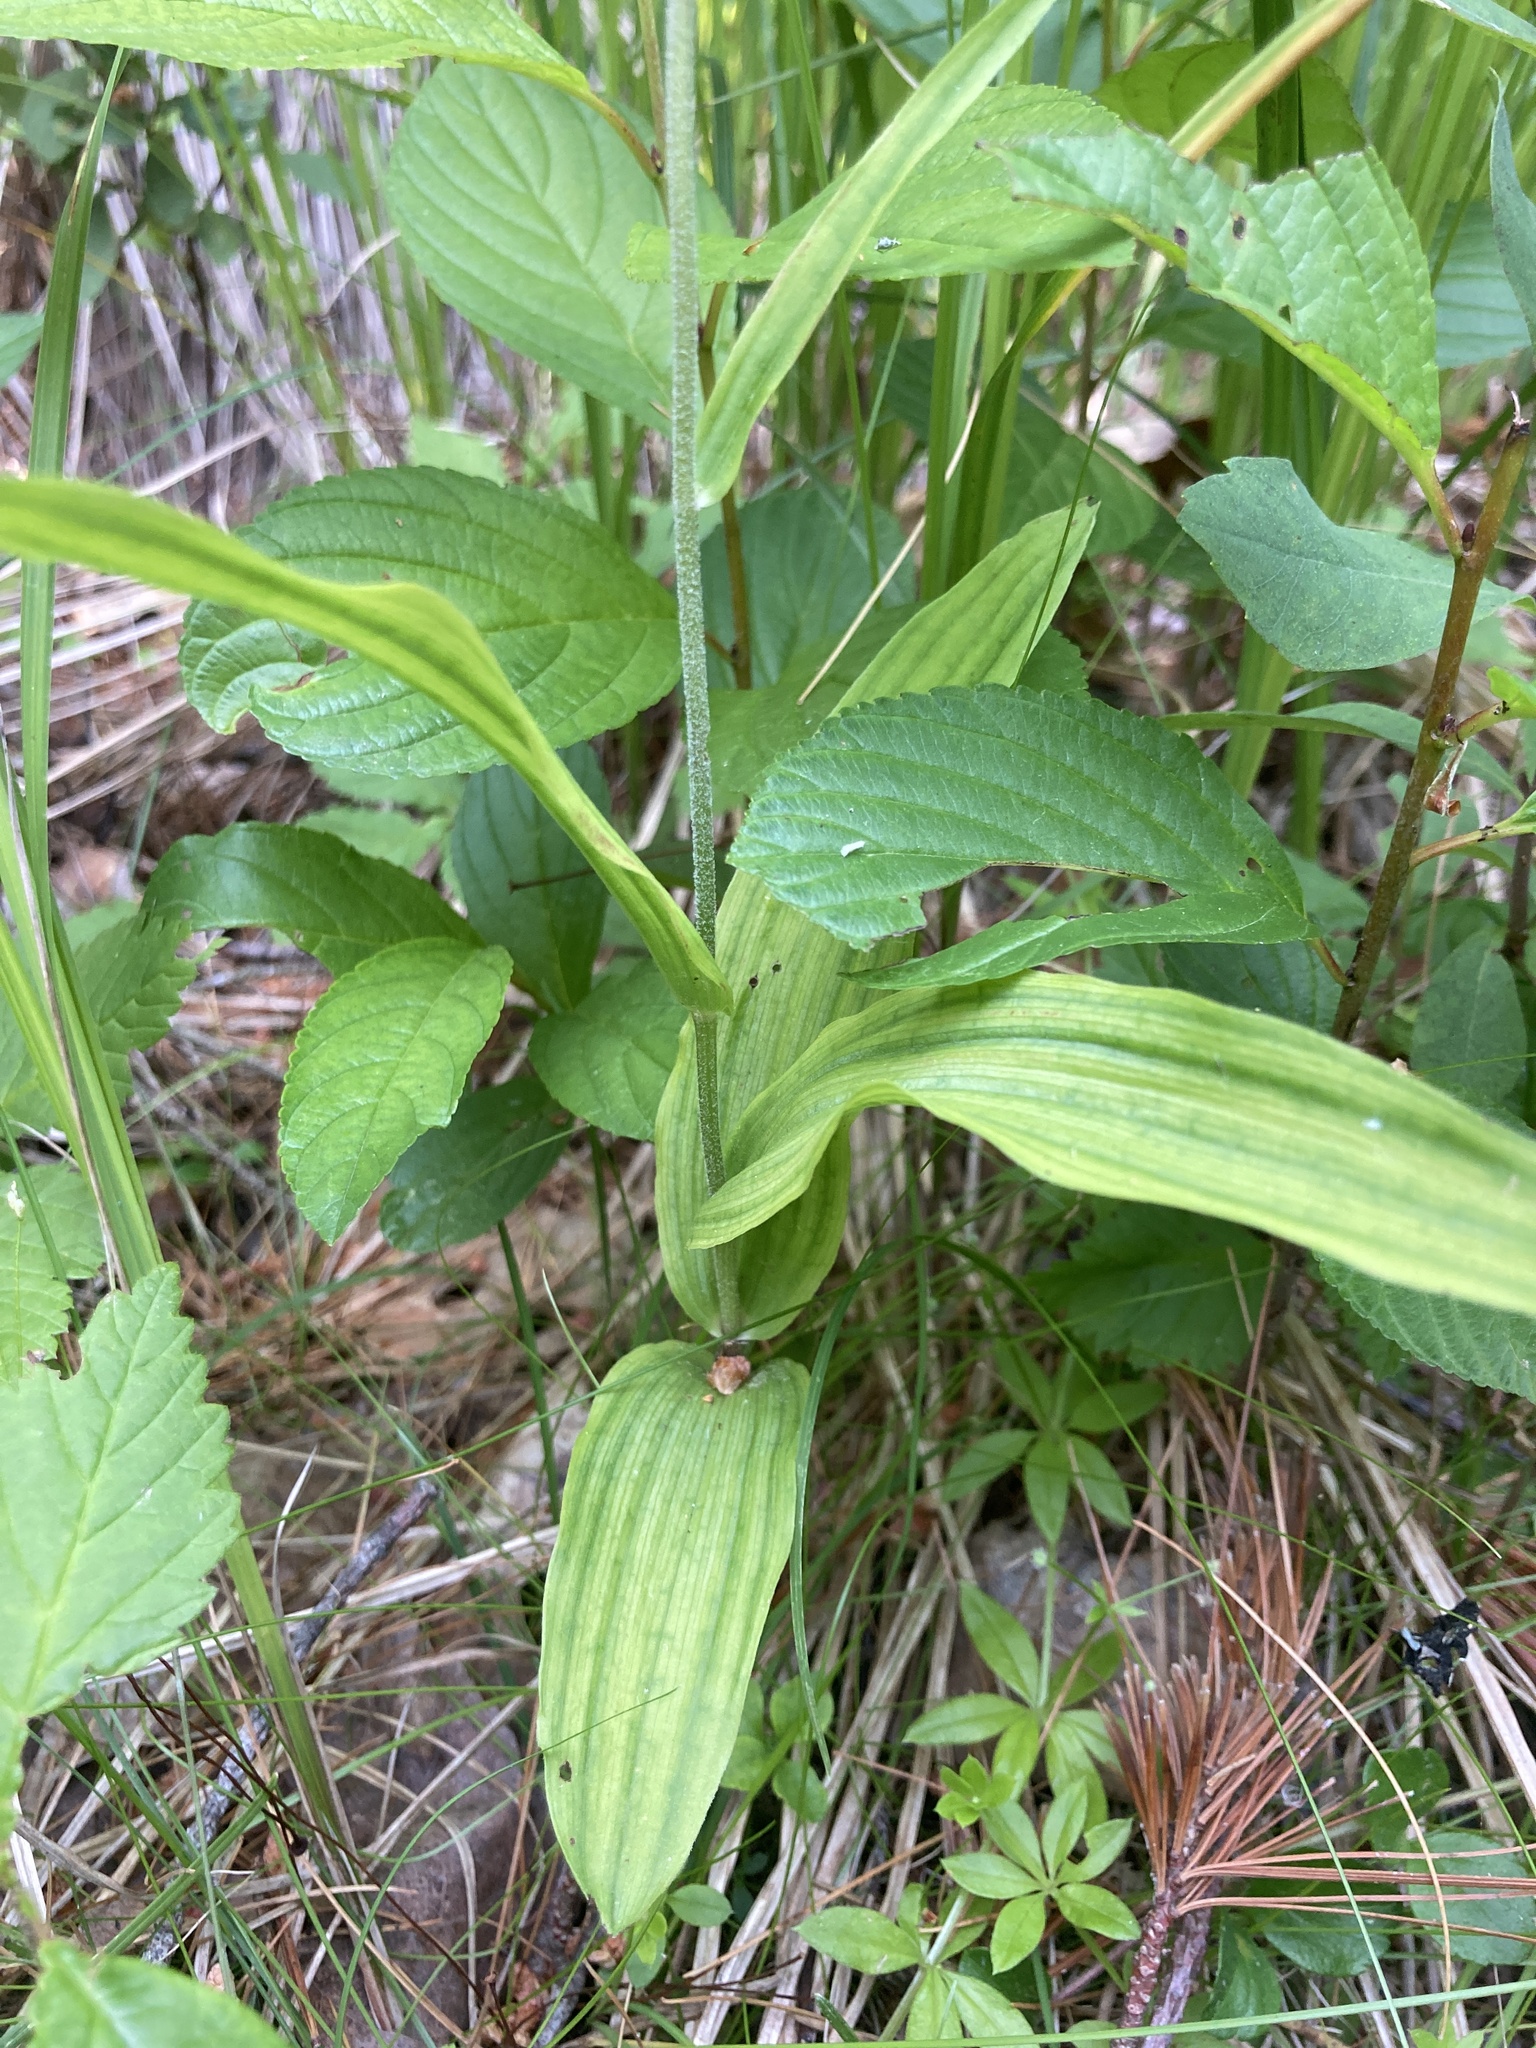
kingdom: Plantae
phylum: Tracheophyta
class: Liliopsida
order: Asparagales
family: Orchidaceae
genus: Epipactis
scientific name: Epipactis helleborine
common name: Broad-leaved helleborine
